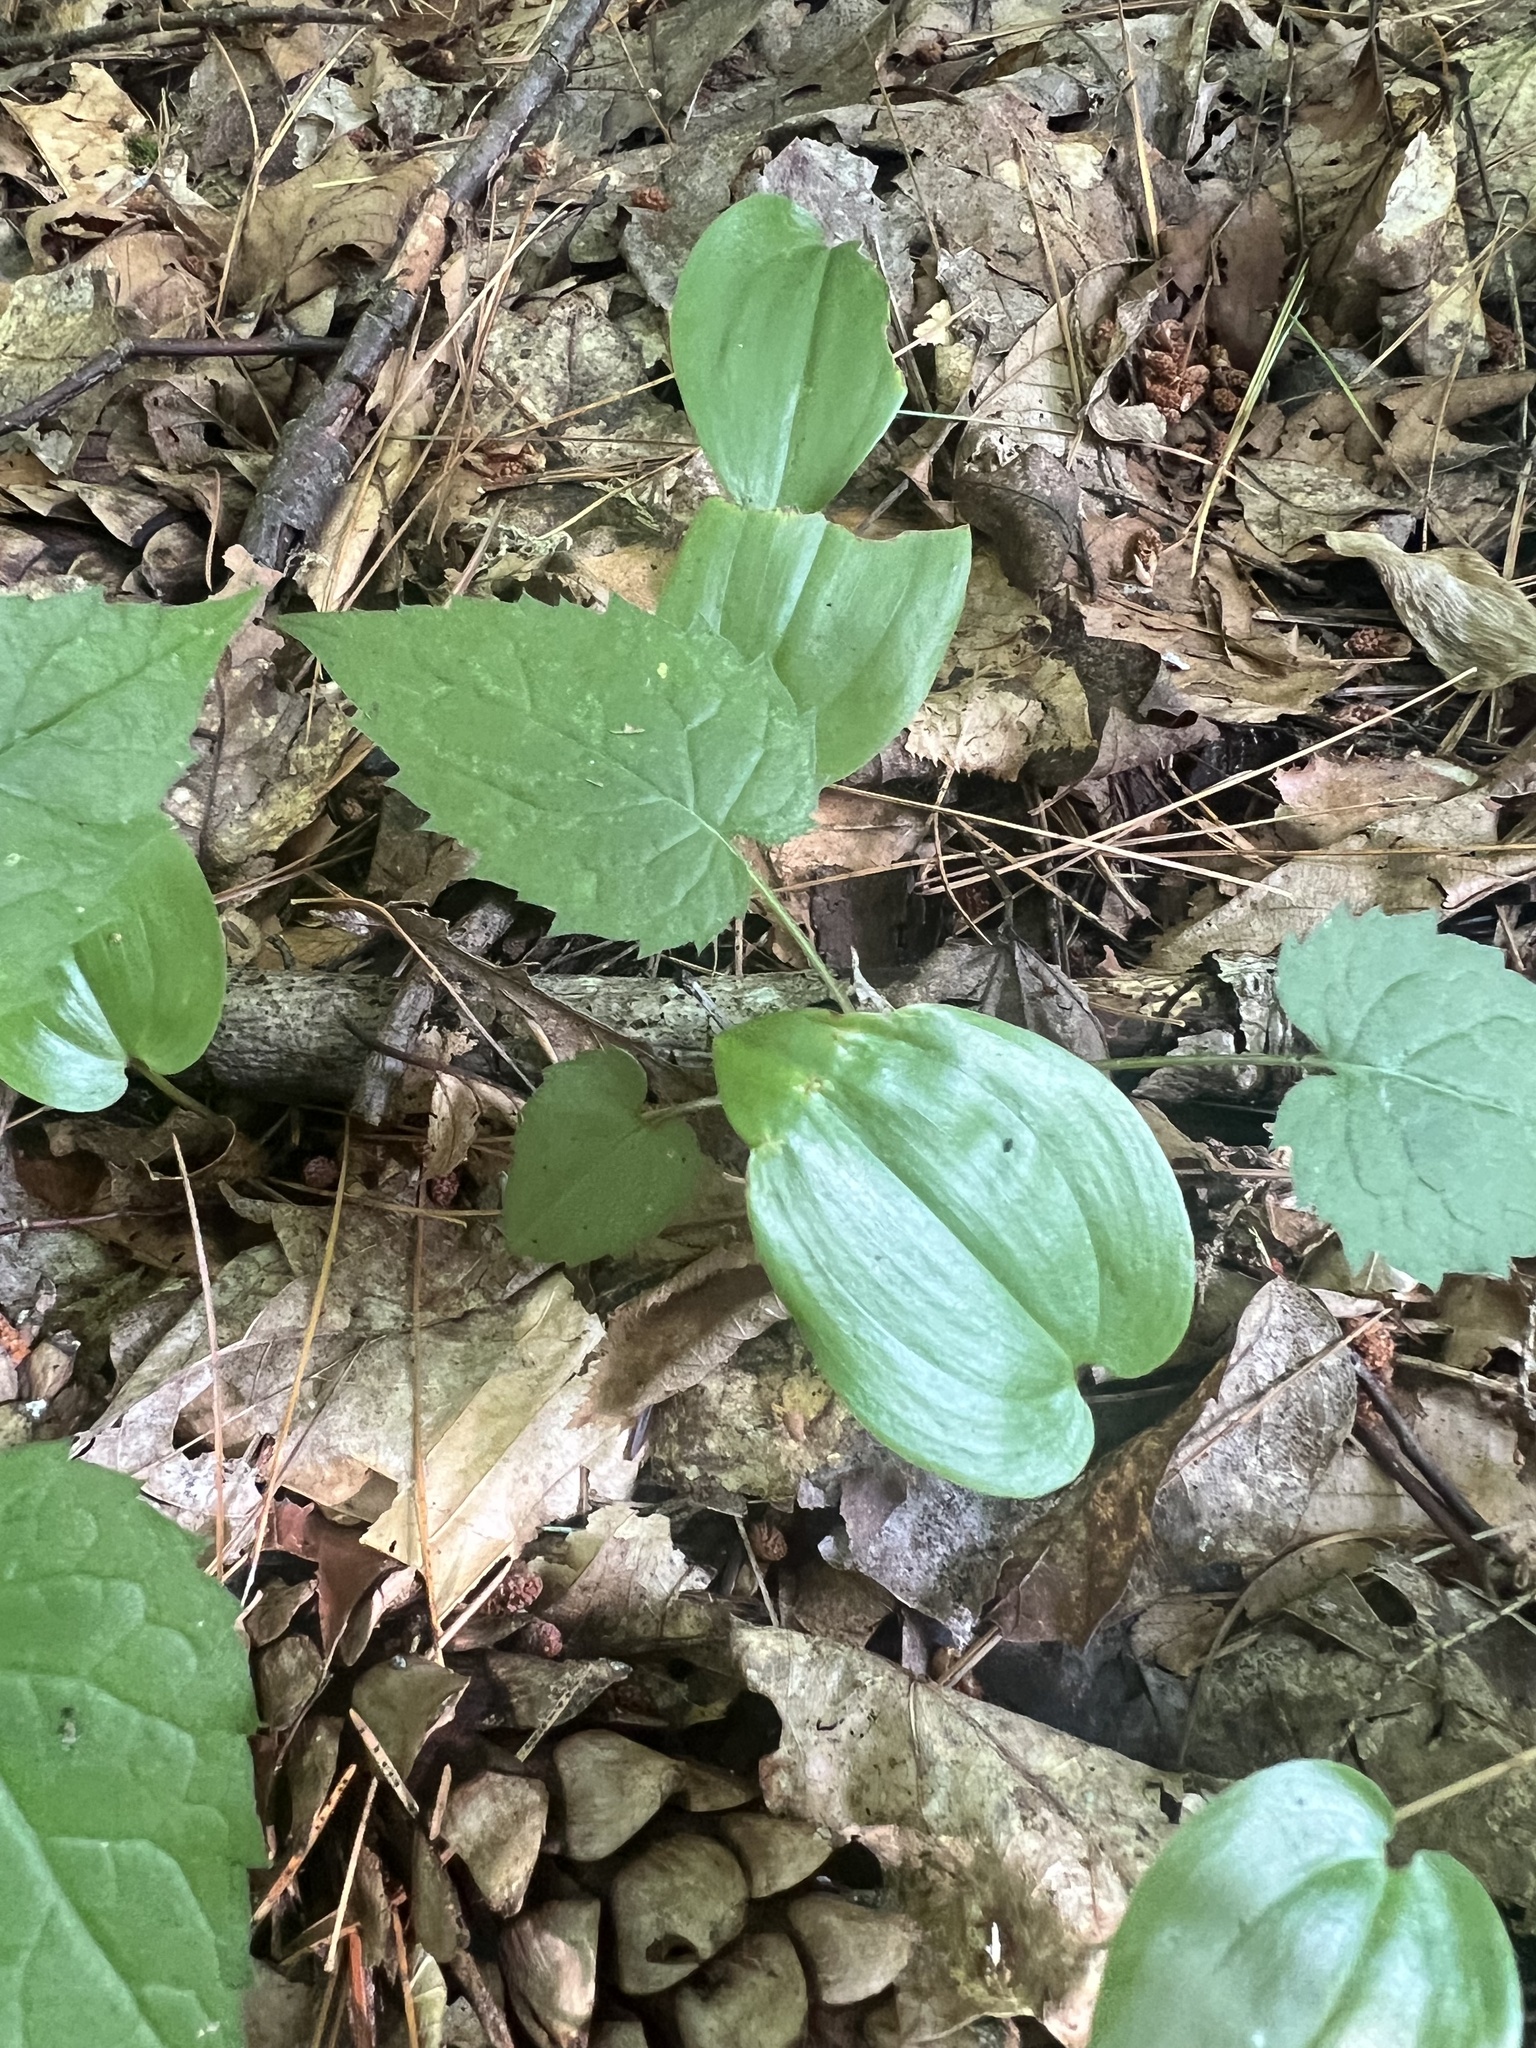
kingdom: Plantae
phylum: Tracheophyta
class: Liliopsida
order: Asparagales
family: Asparagaceae
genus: Maianthemum
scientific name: Maianthemum canadense
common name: False lily-of-the-valley
